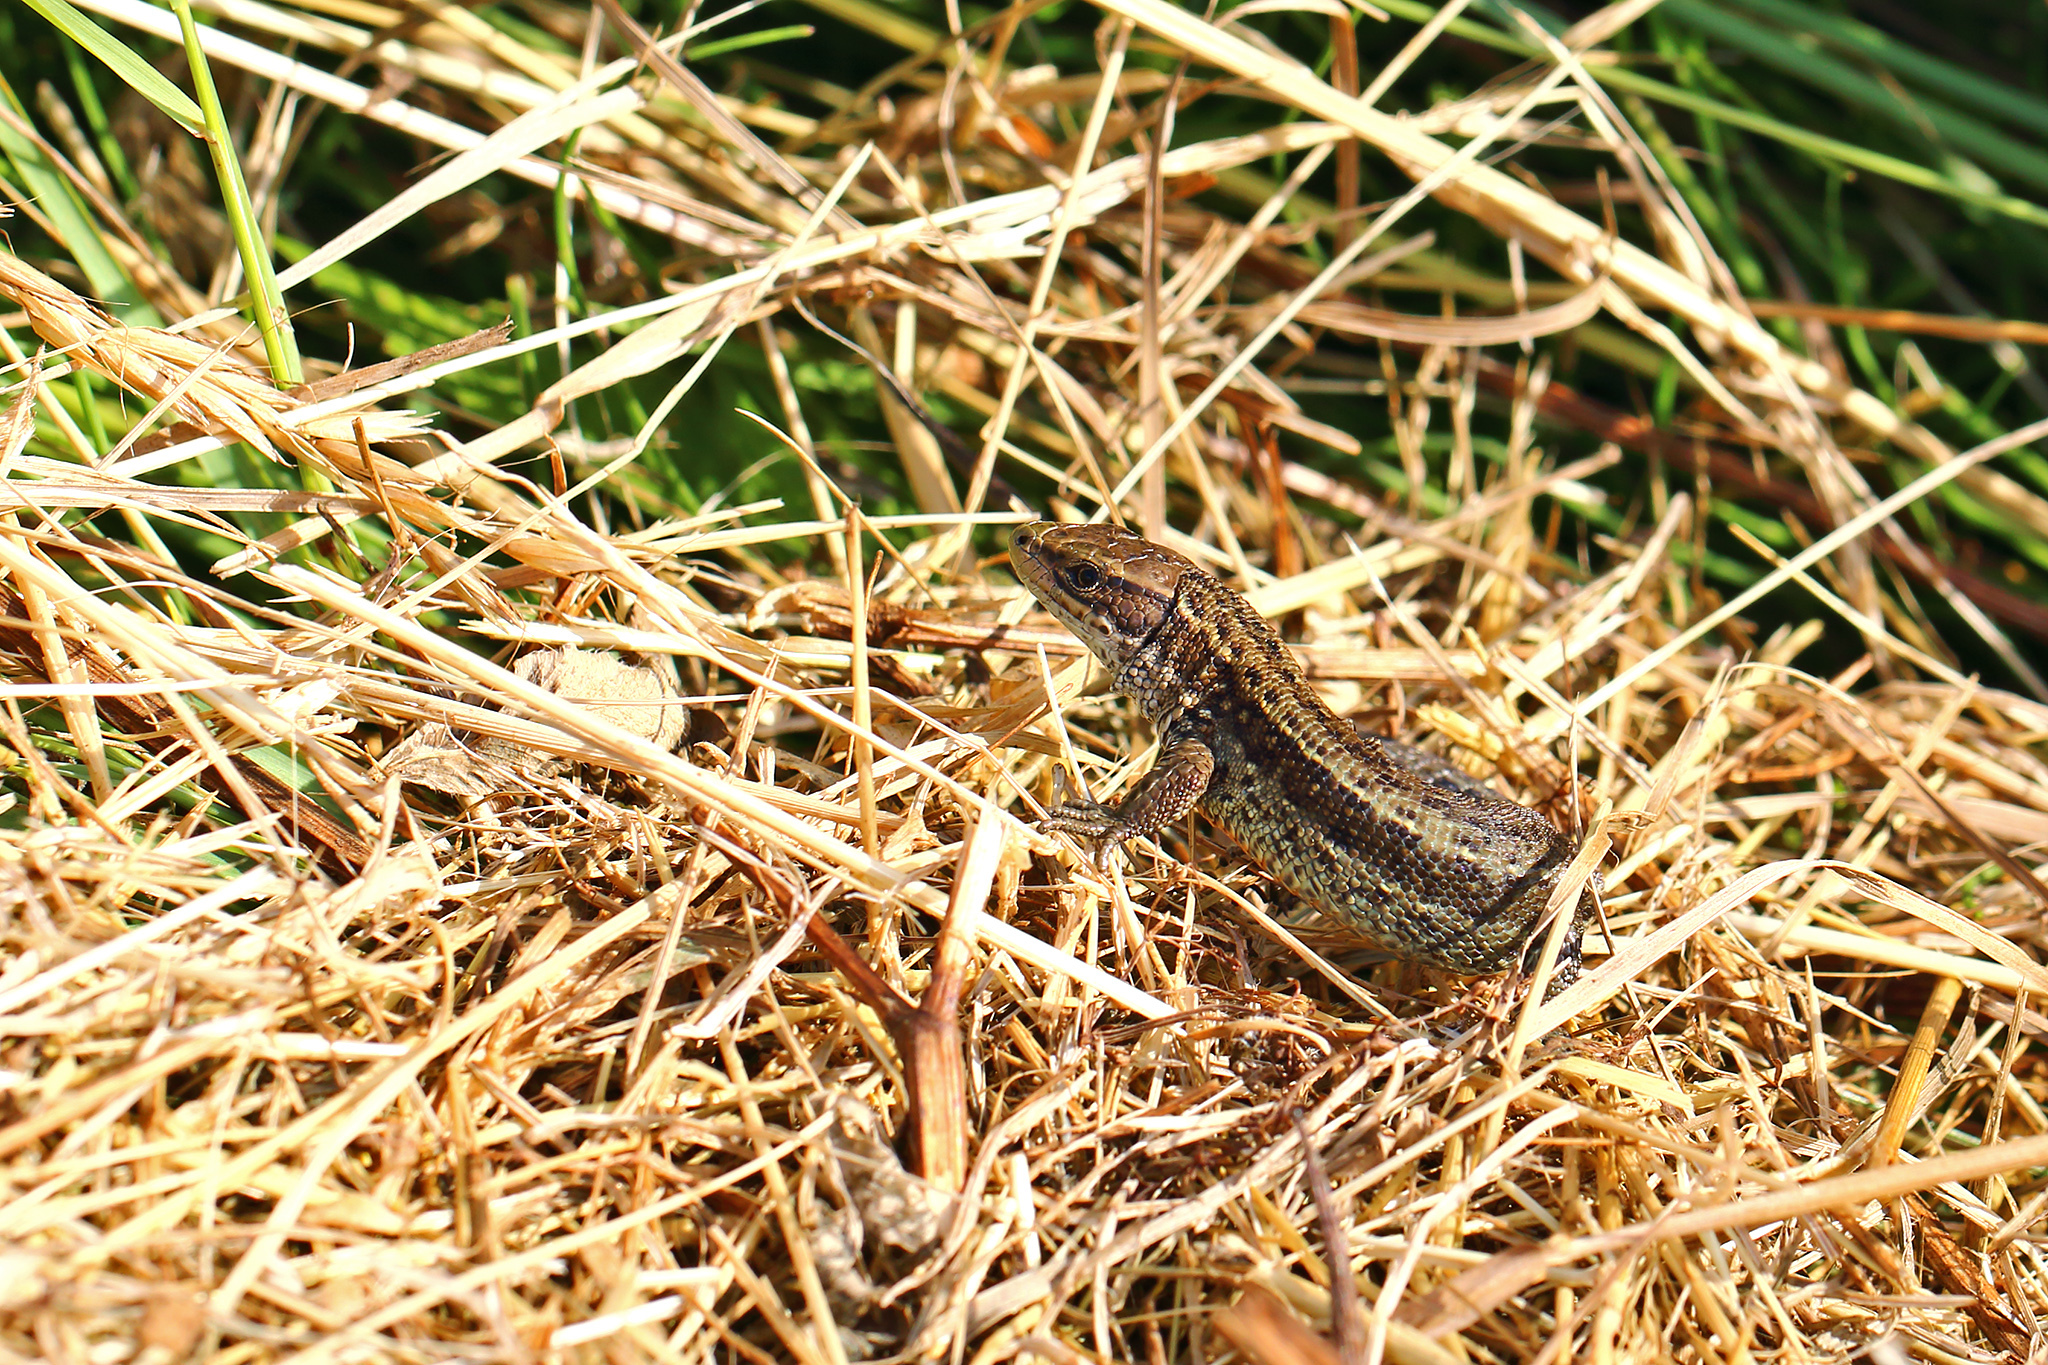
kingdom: Animalia
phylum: Chordata
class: Squamata
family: Lacertidae
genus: Zootoca
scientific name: Zootoca vivipara
